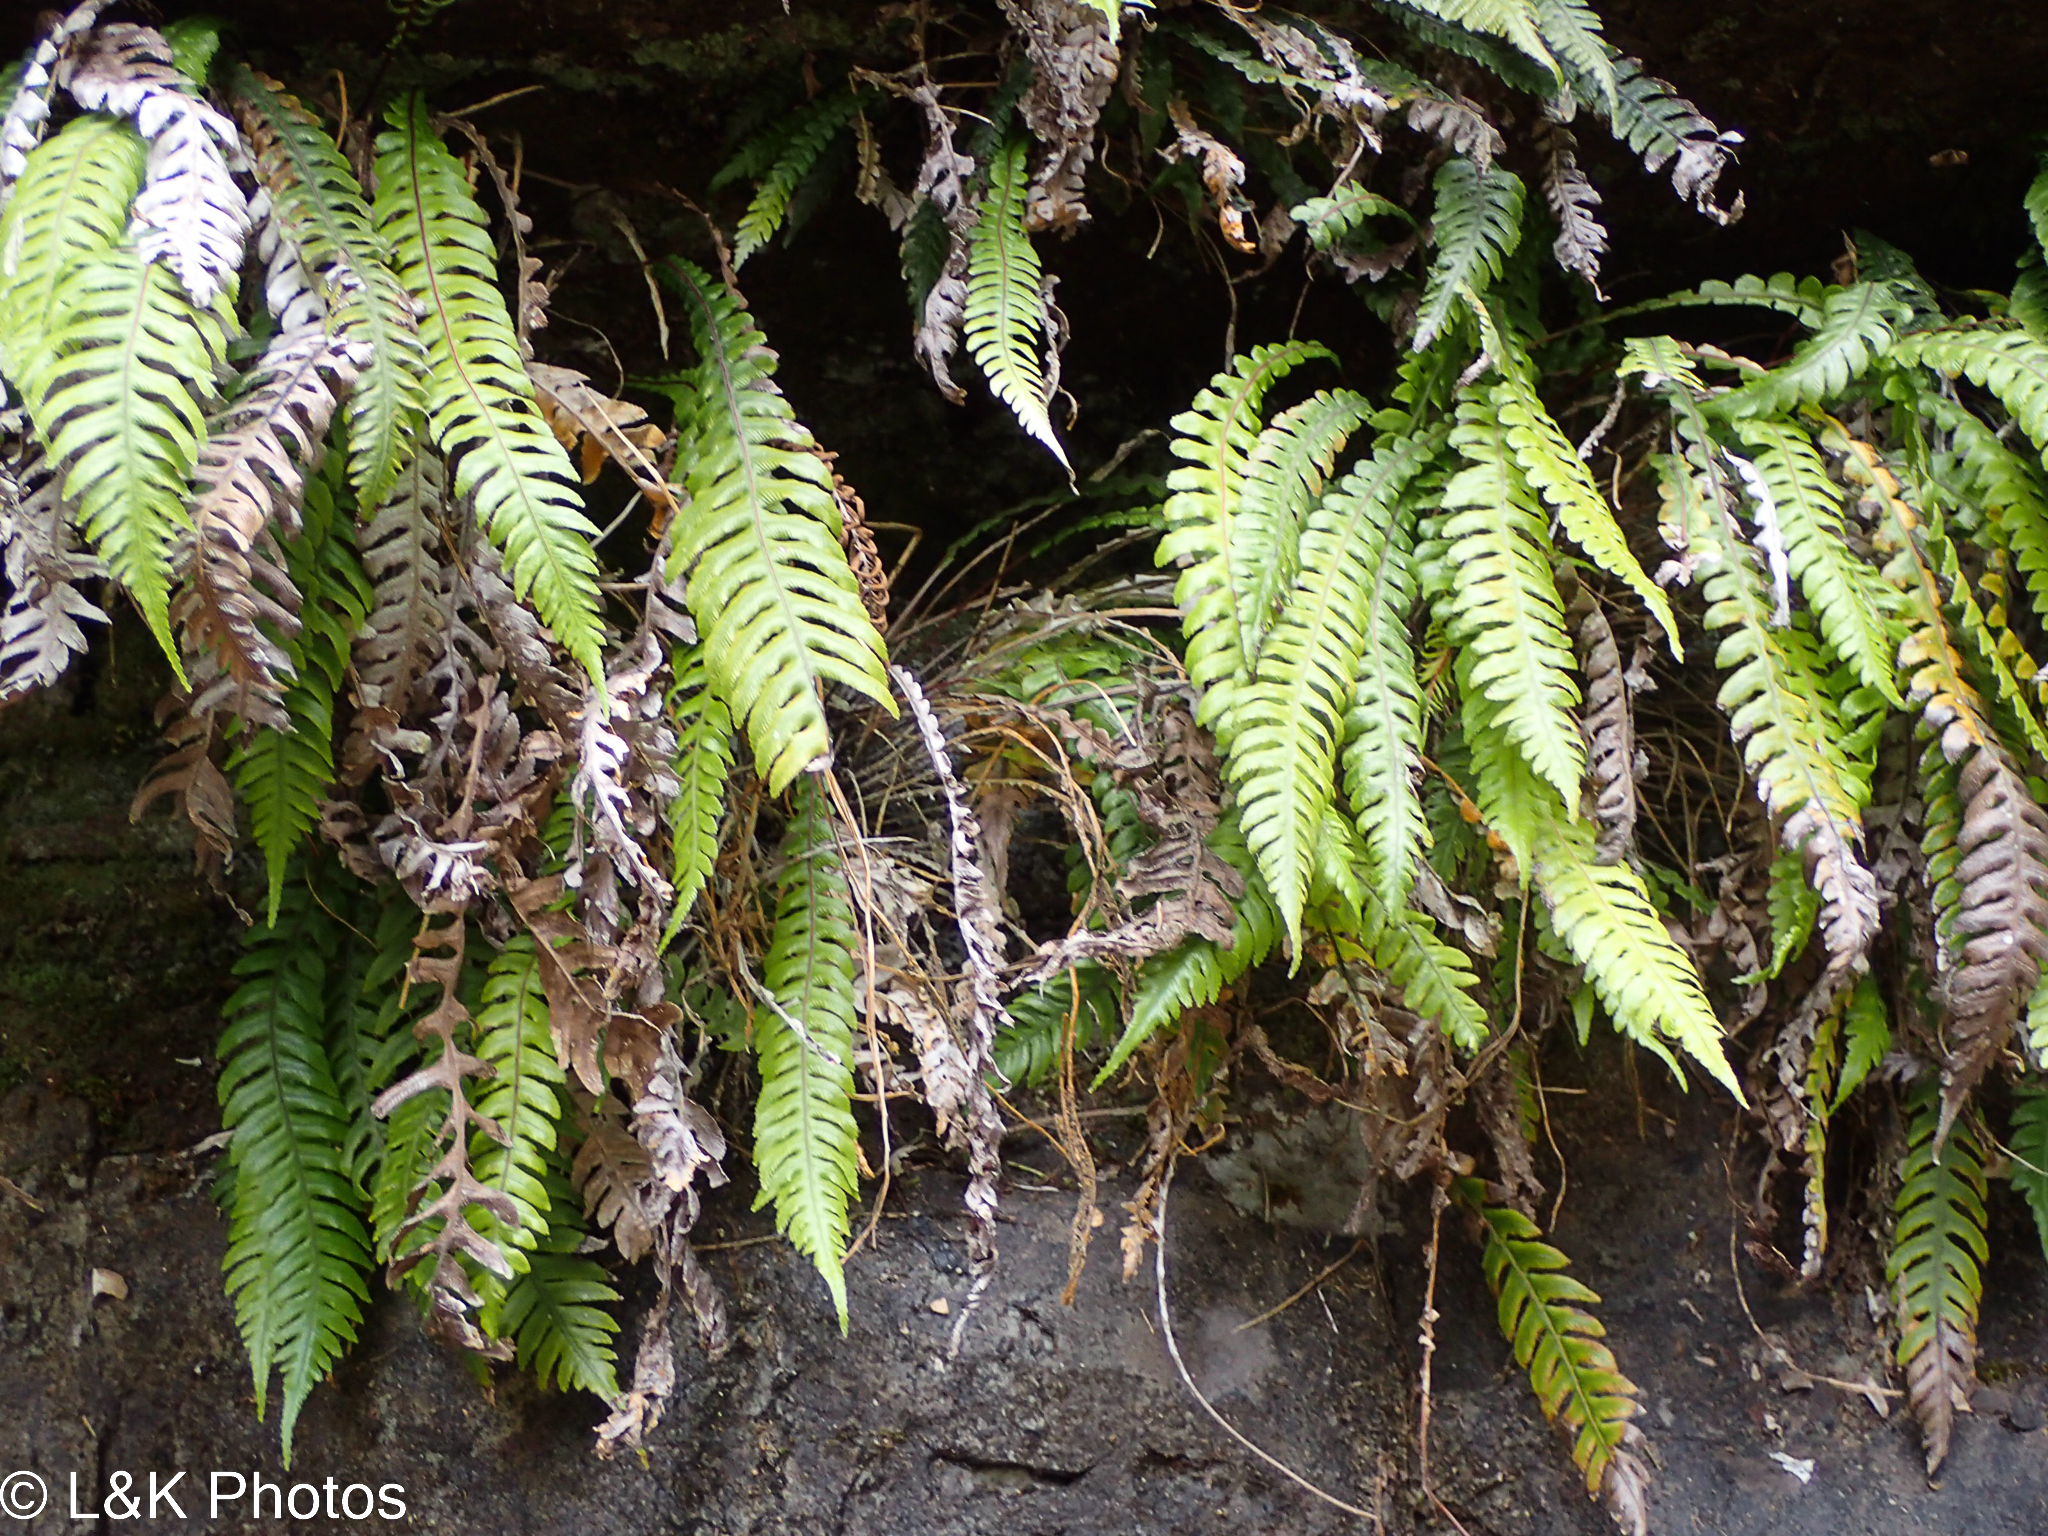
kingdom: Plantae
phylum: Tracheophyta
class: Polypodiopsida
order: Polypodiales
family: Blechnaceae
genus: Austroblechnum
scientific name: Austroblechnum lanceolatum
